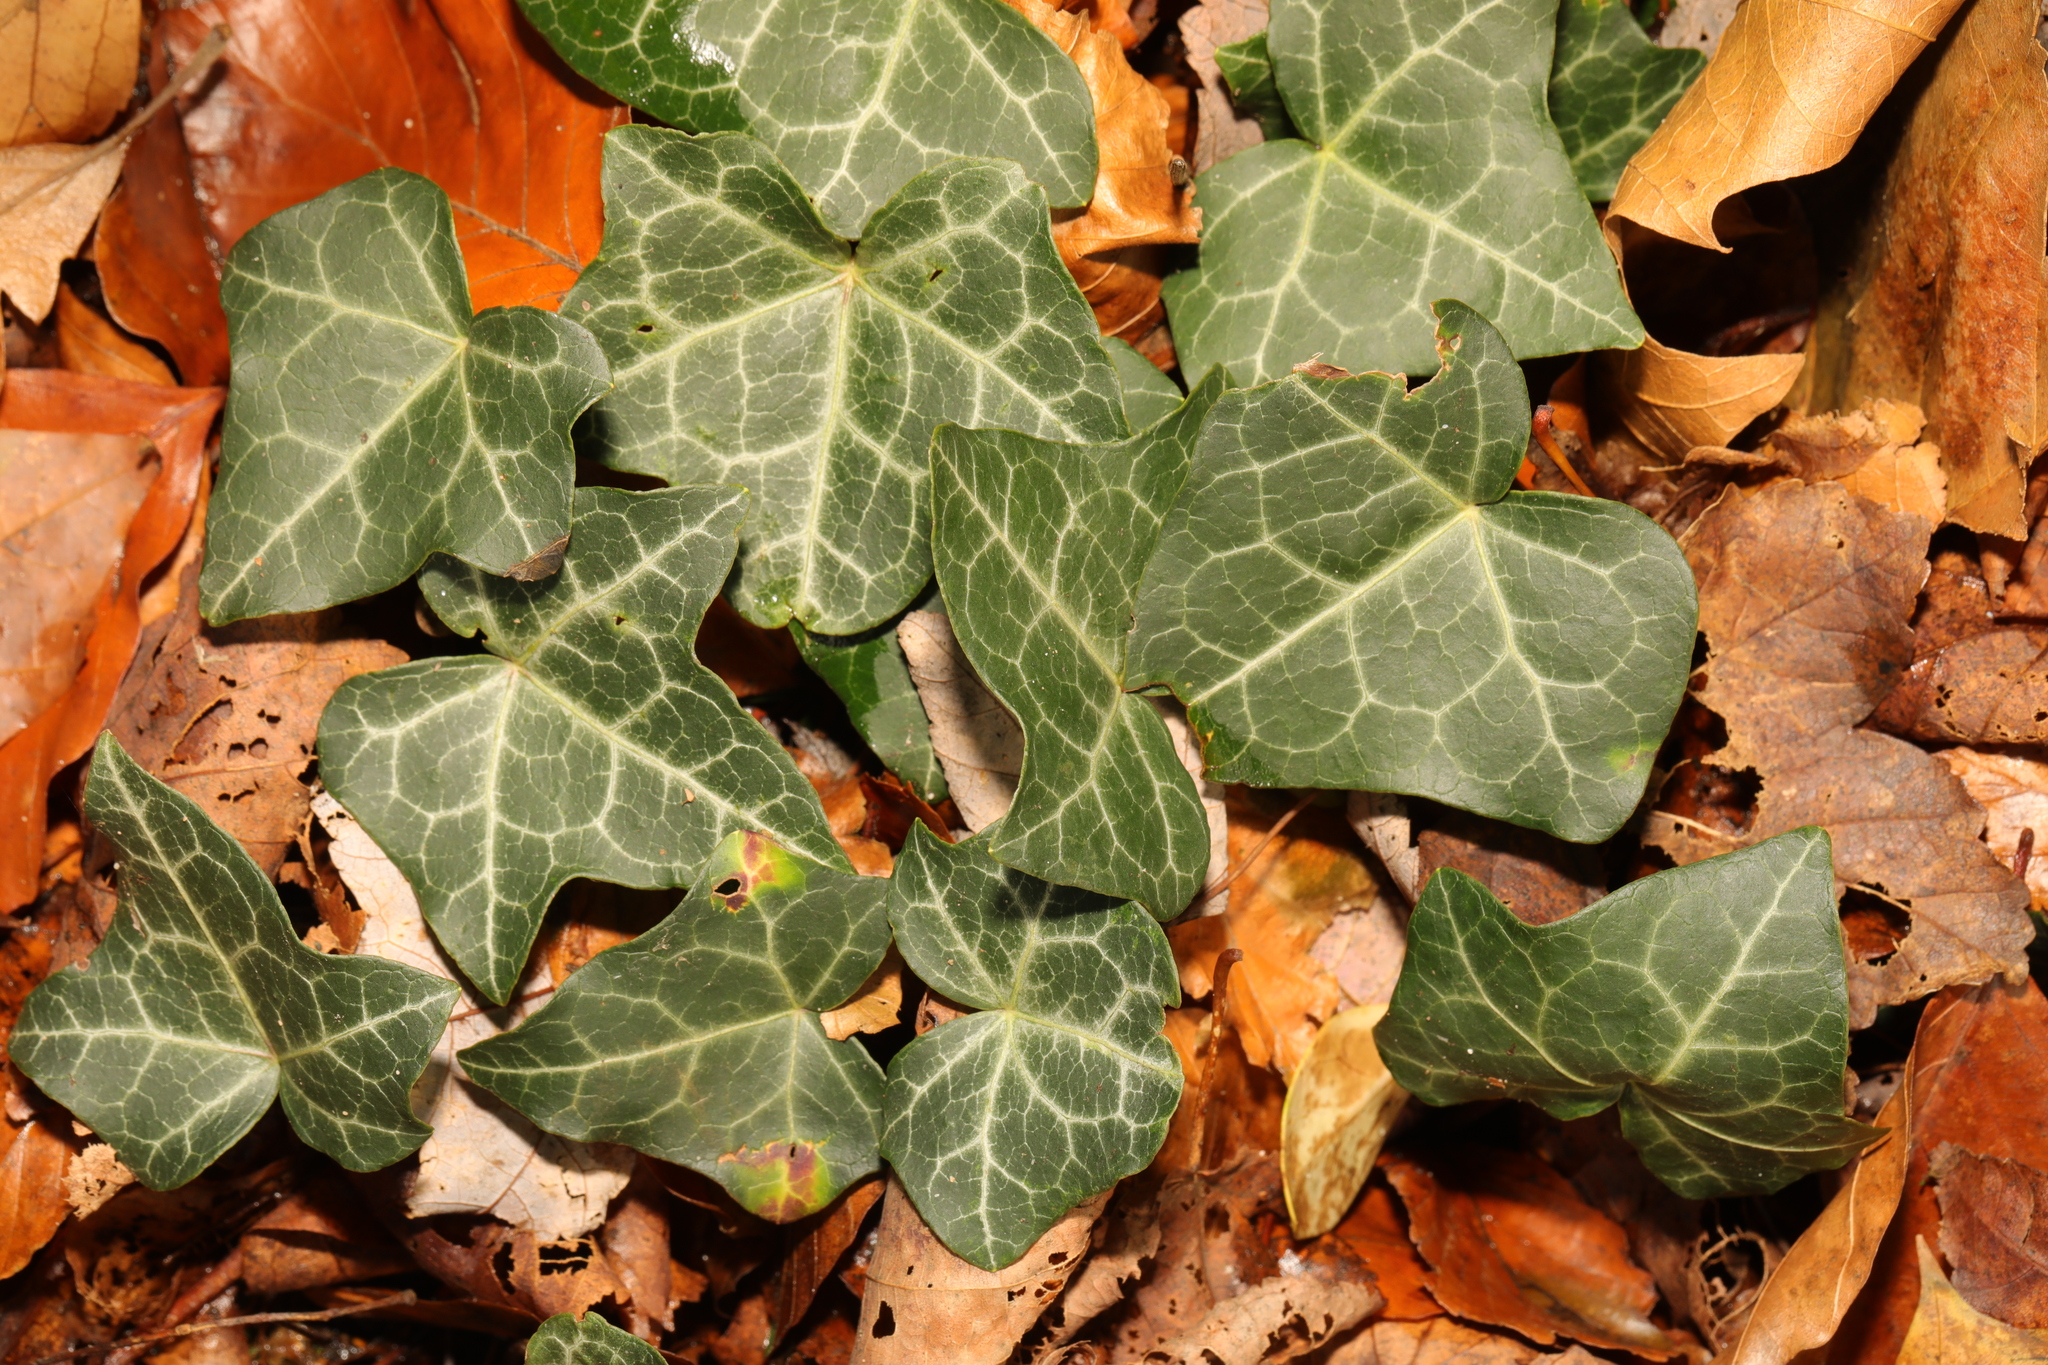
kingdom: Plantae
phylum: Tracheophyta
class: Magnoliopsida
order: Apiales
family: Araliaceae
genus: Hedera
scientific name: Hedera helix
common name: Ivy
